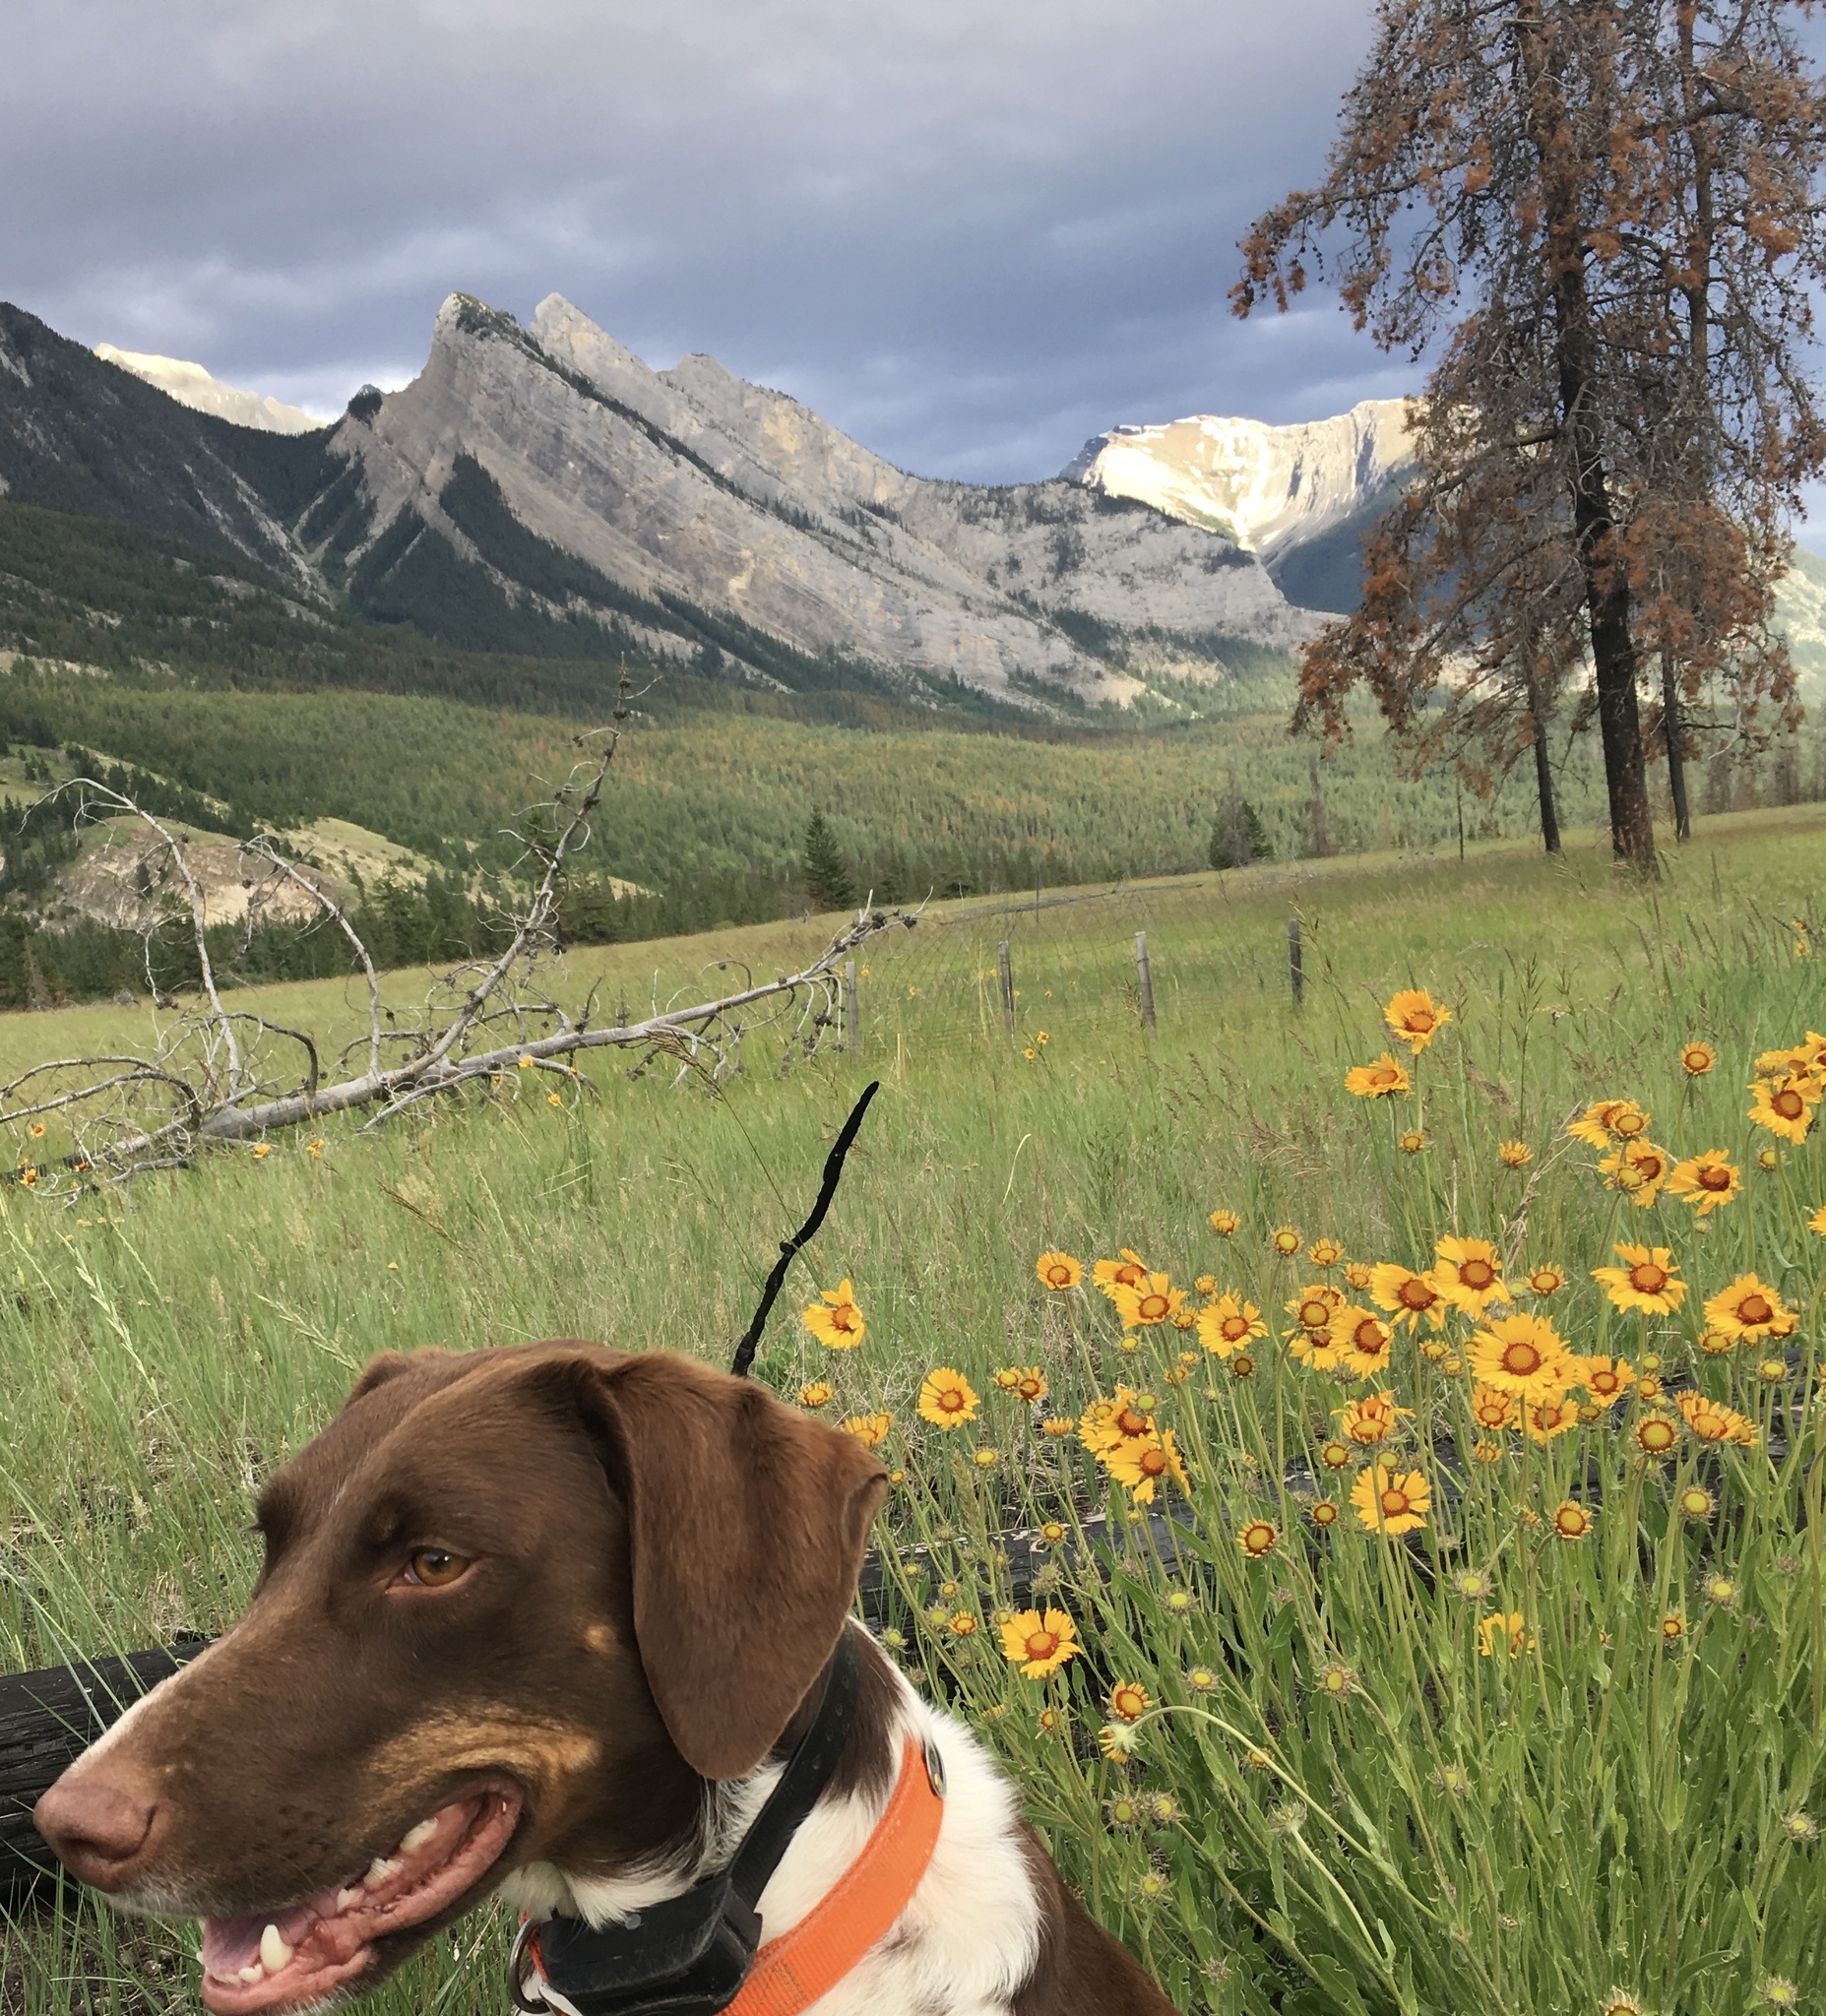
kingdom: Plantae
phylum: Tracheophyta
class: Magnoliopsida
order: Asterales
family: Asteraceae
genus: Gaillardia
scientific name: Gaillardia aristata
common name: Blanket-flower
